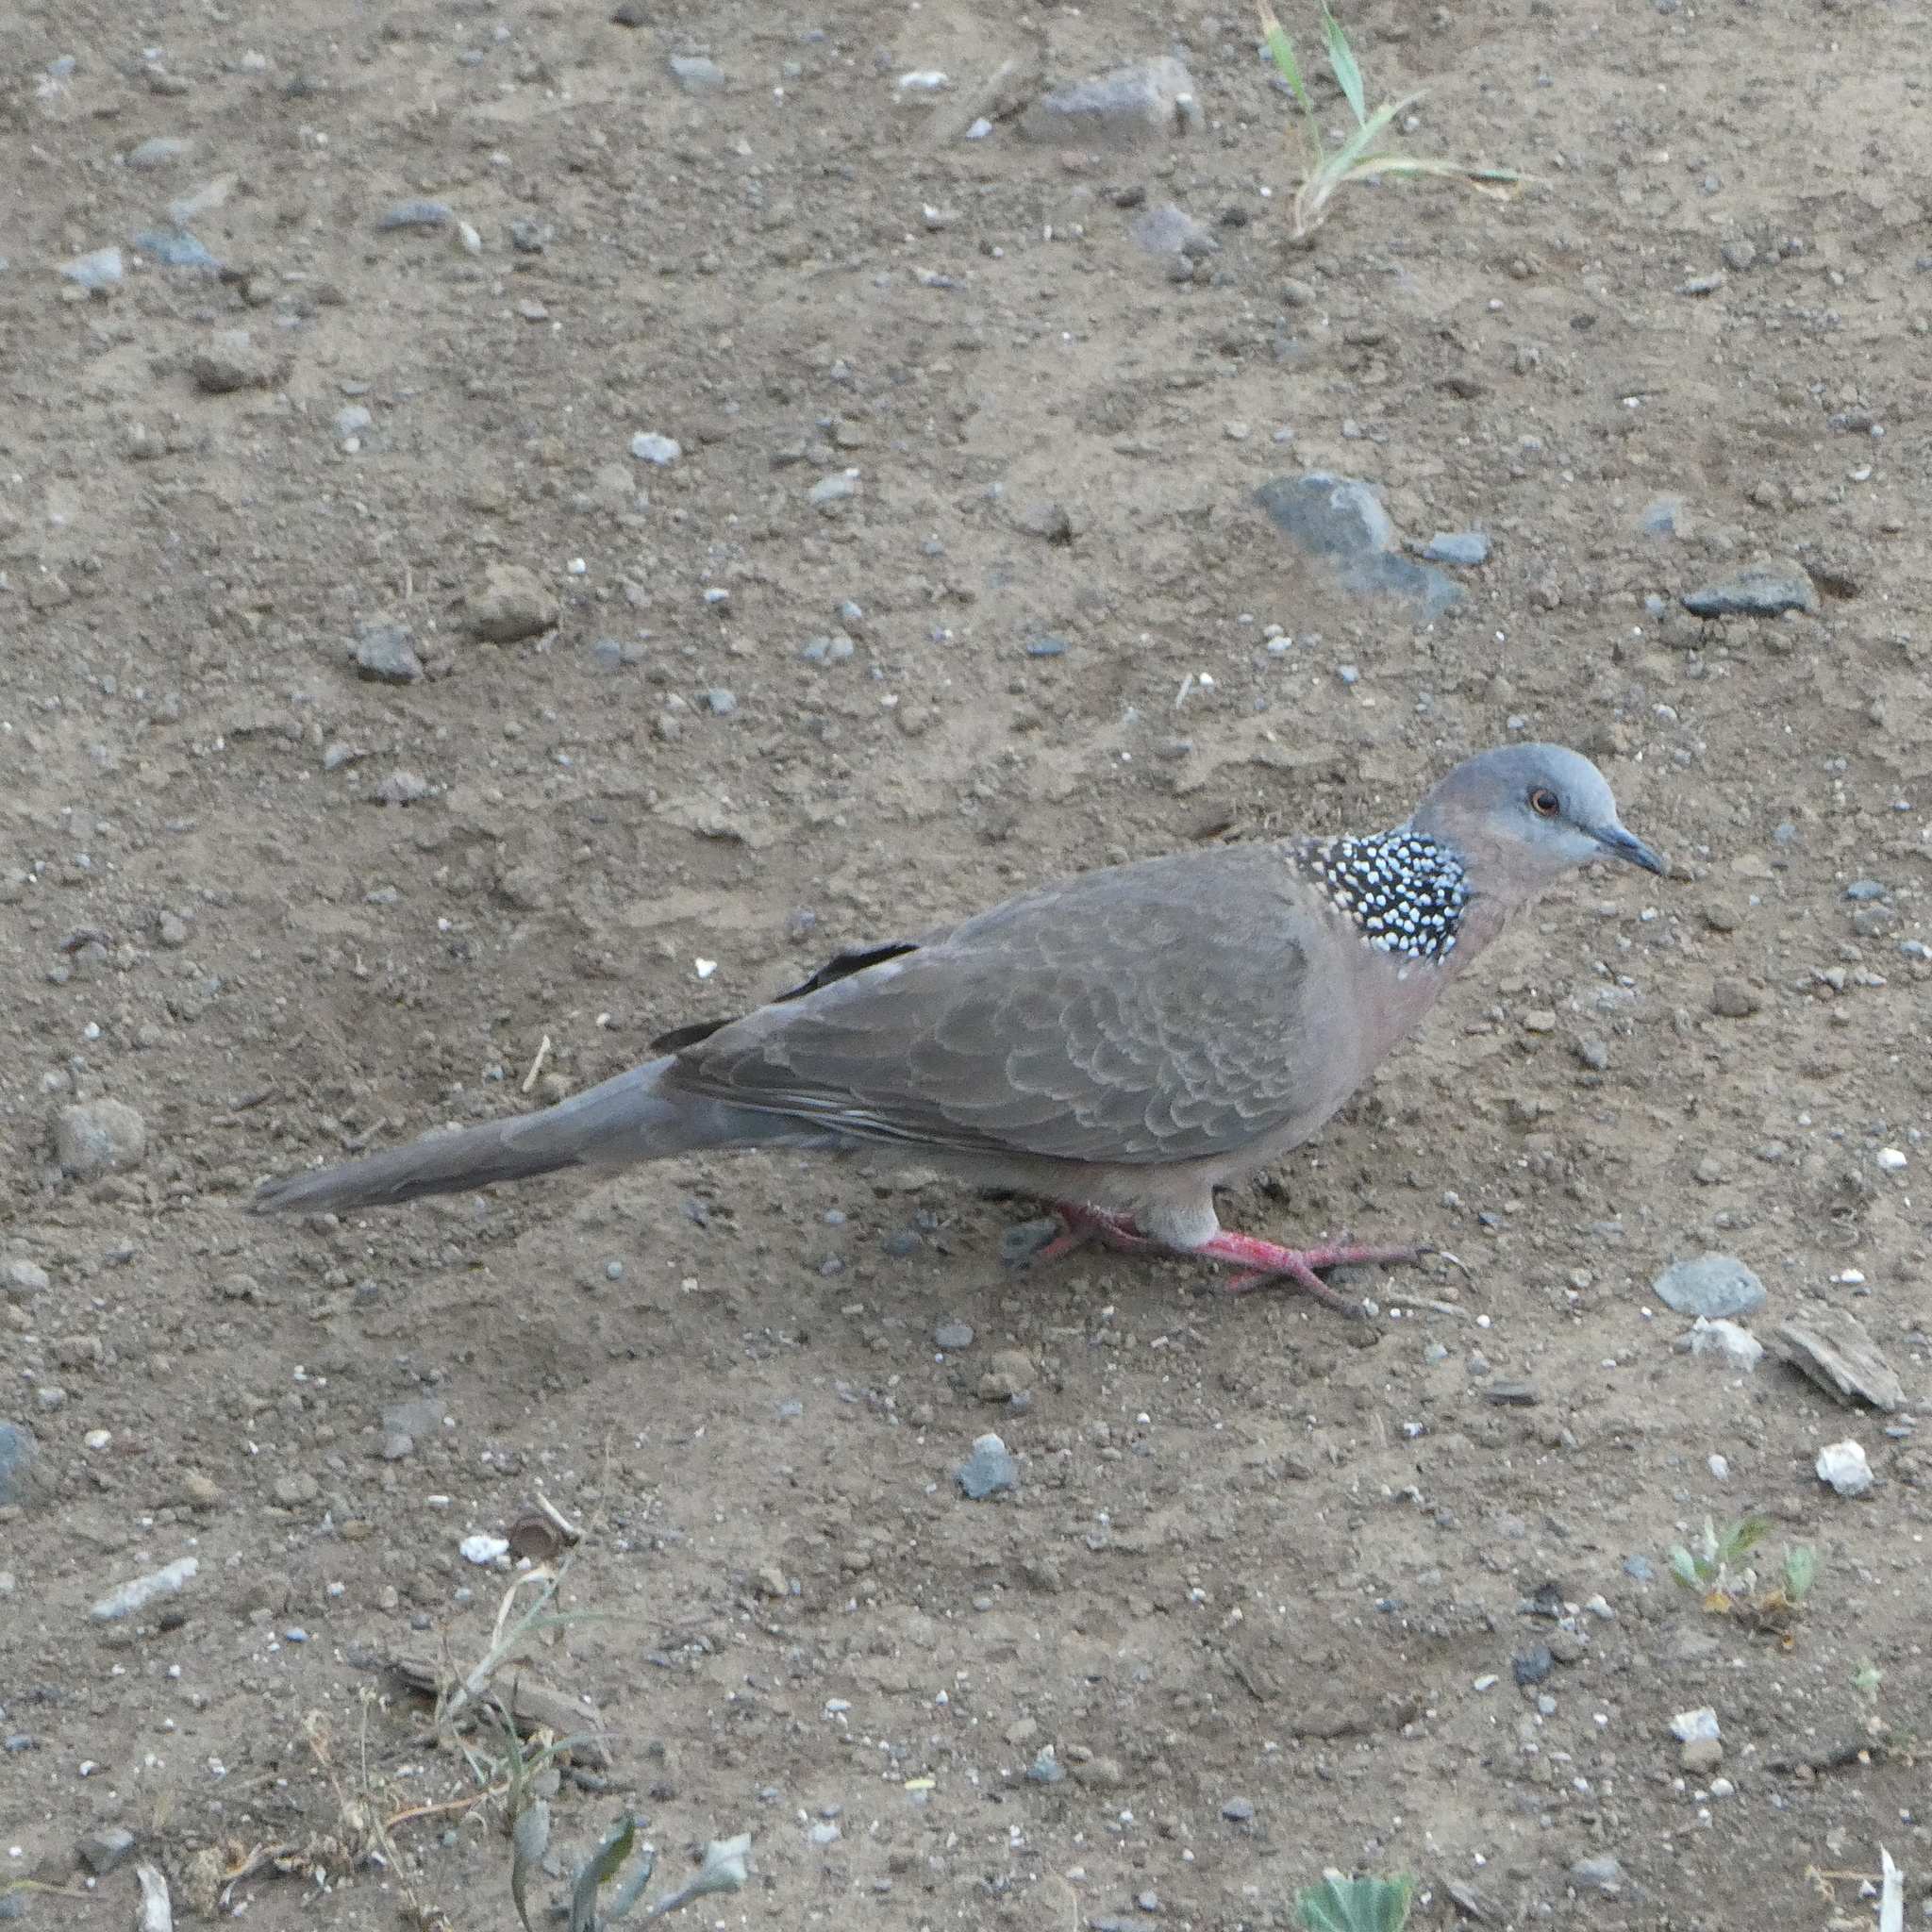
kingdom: Animalia
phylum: Chordata
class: Aves
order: Columbiformes
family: Columbidae
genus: Spilopelia
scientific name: Spilopelia chinensis
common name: Spotted dove
